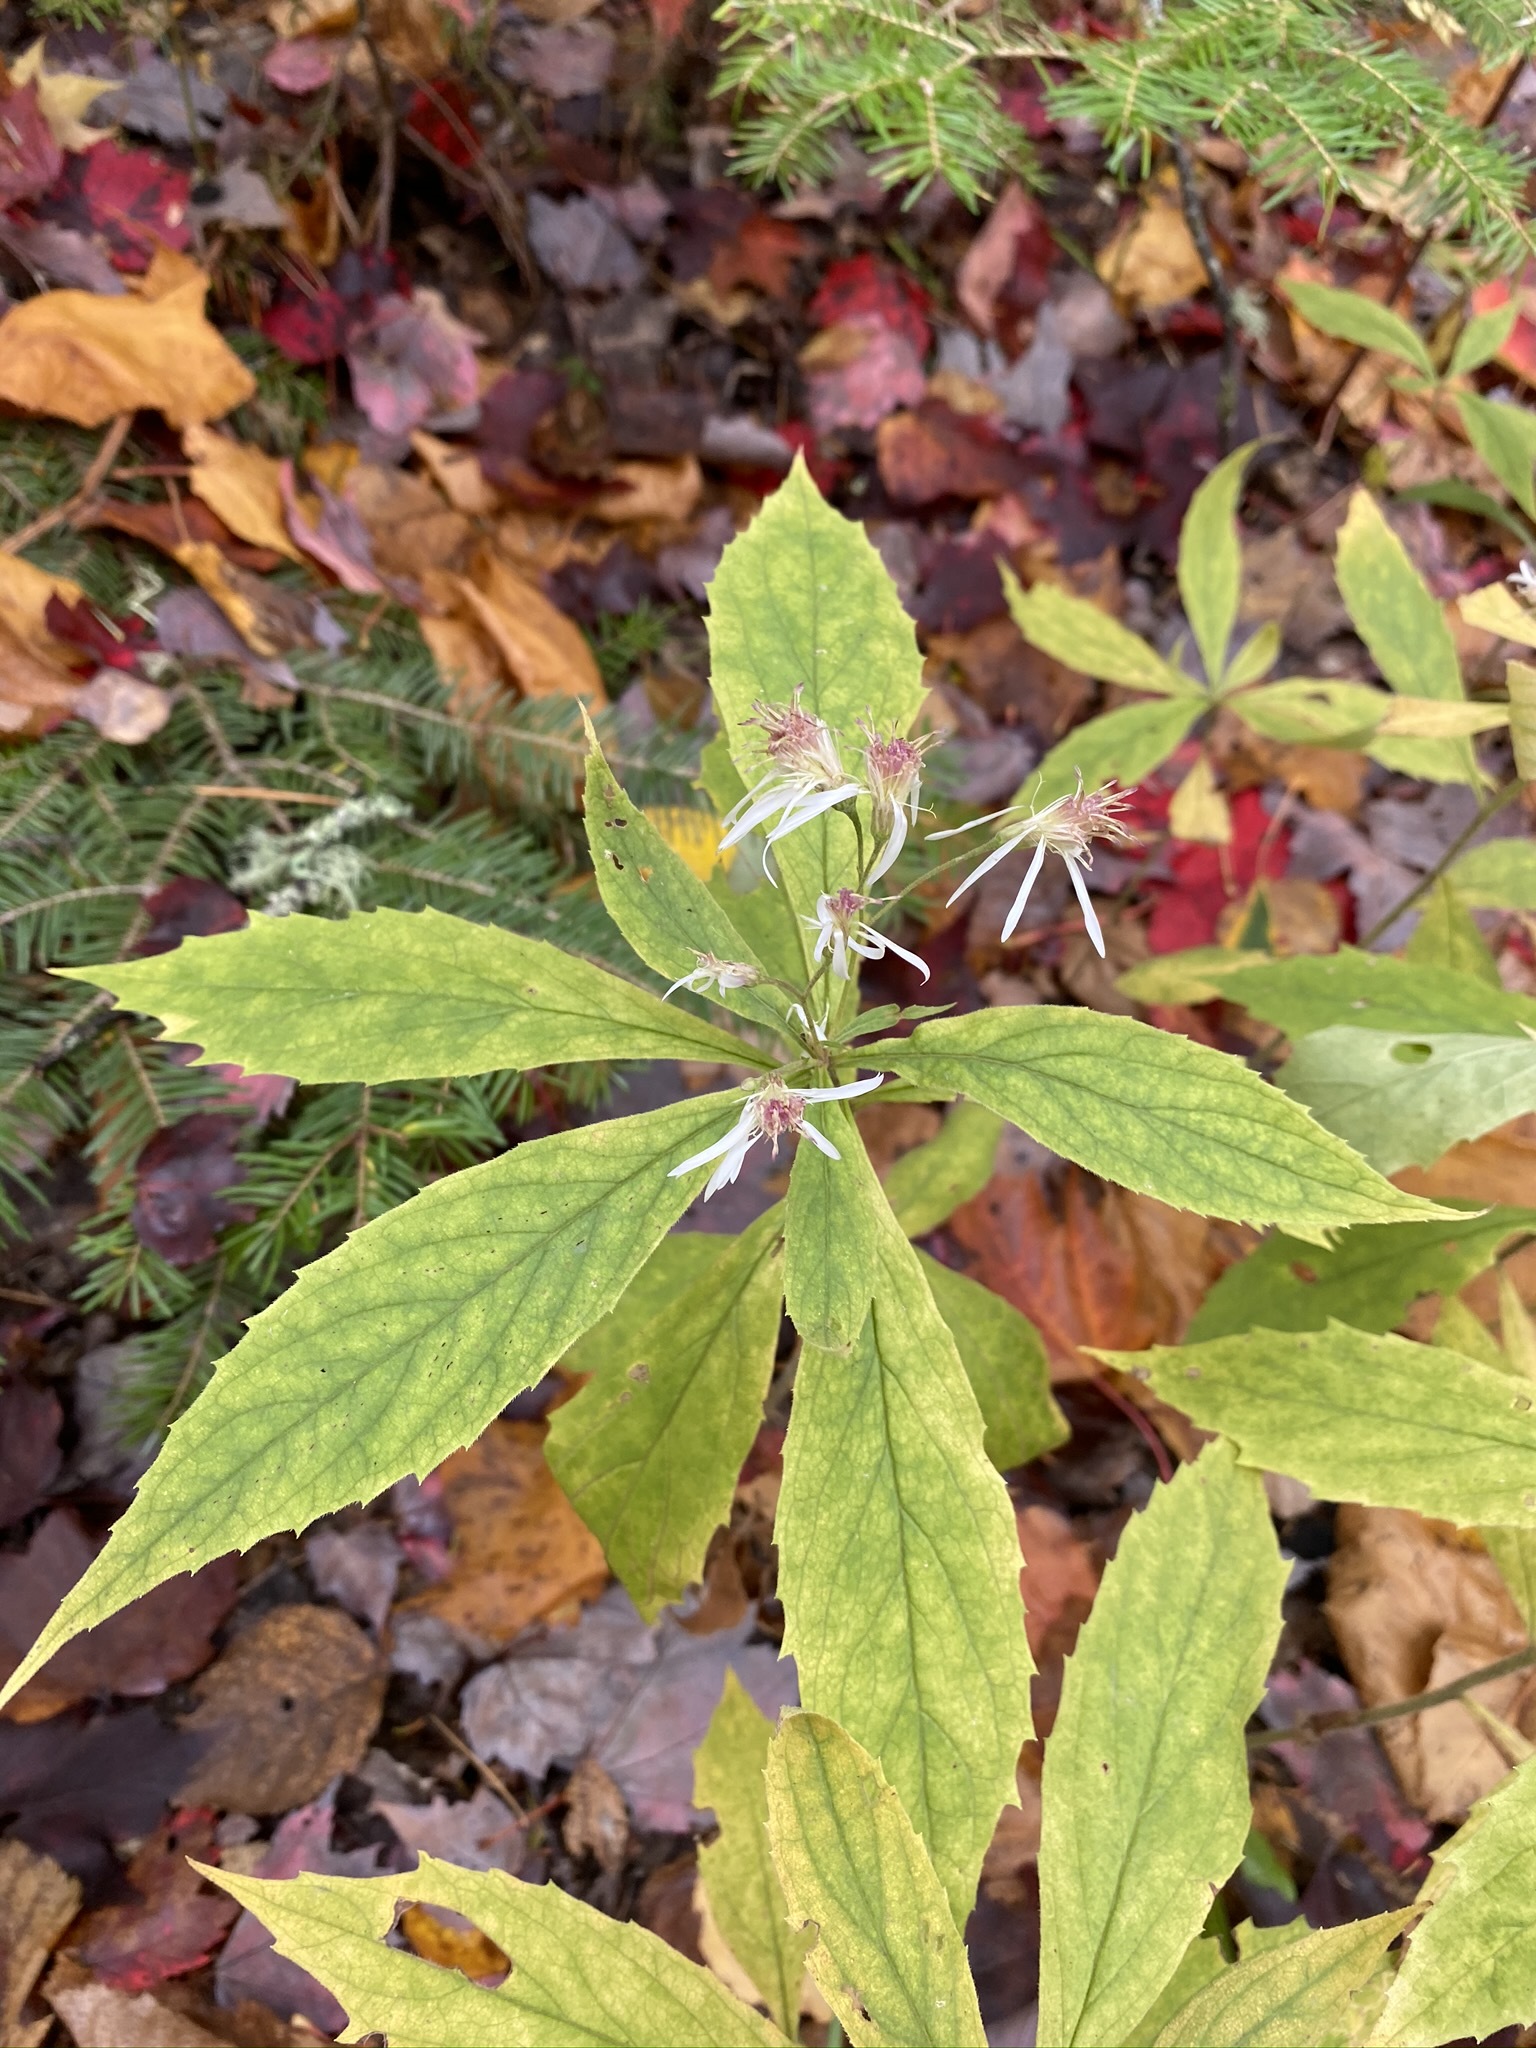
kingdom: Plantae
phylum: Tracheophyta
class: Magnoliopsida
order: Asterales
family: Asteraceae
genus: Oclemena
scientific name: Oclemena acuminata
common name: Mountain aster
